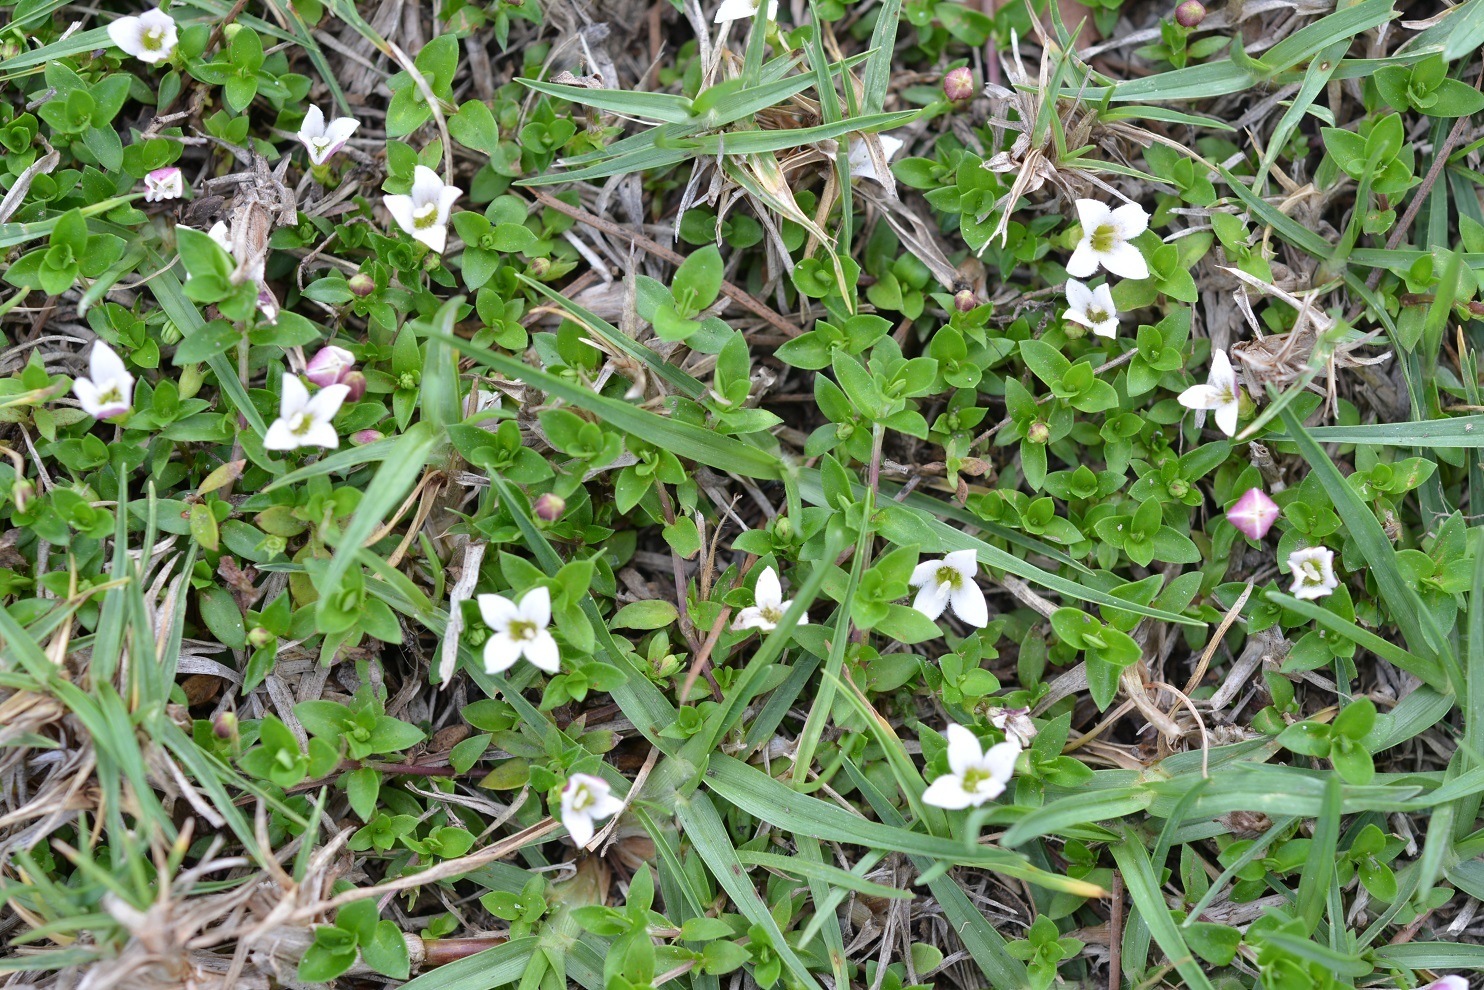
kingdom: Plantae
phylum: Tracheophyta
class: Magnoliopsida
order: Gentianales
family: Rubiaceae
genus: Arcytophyllum
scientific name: Arcytophyllum serpyllaceum
